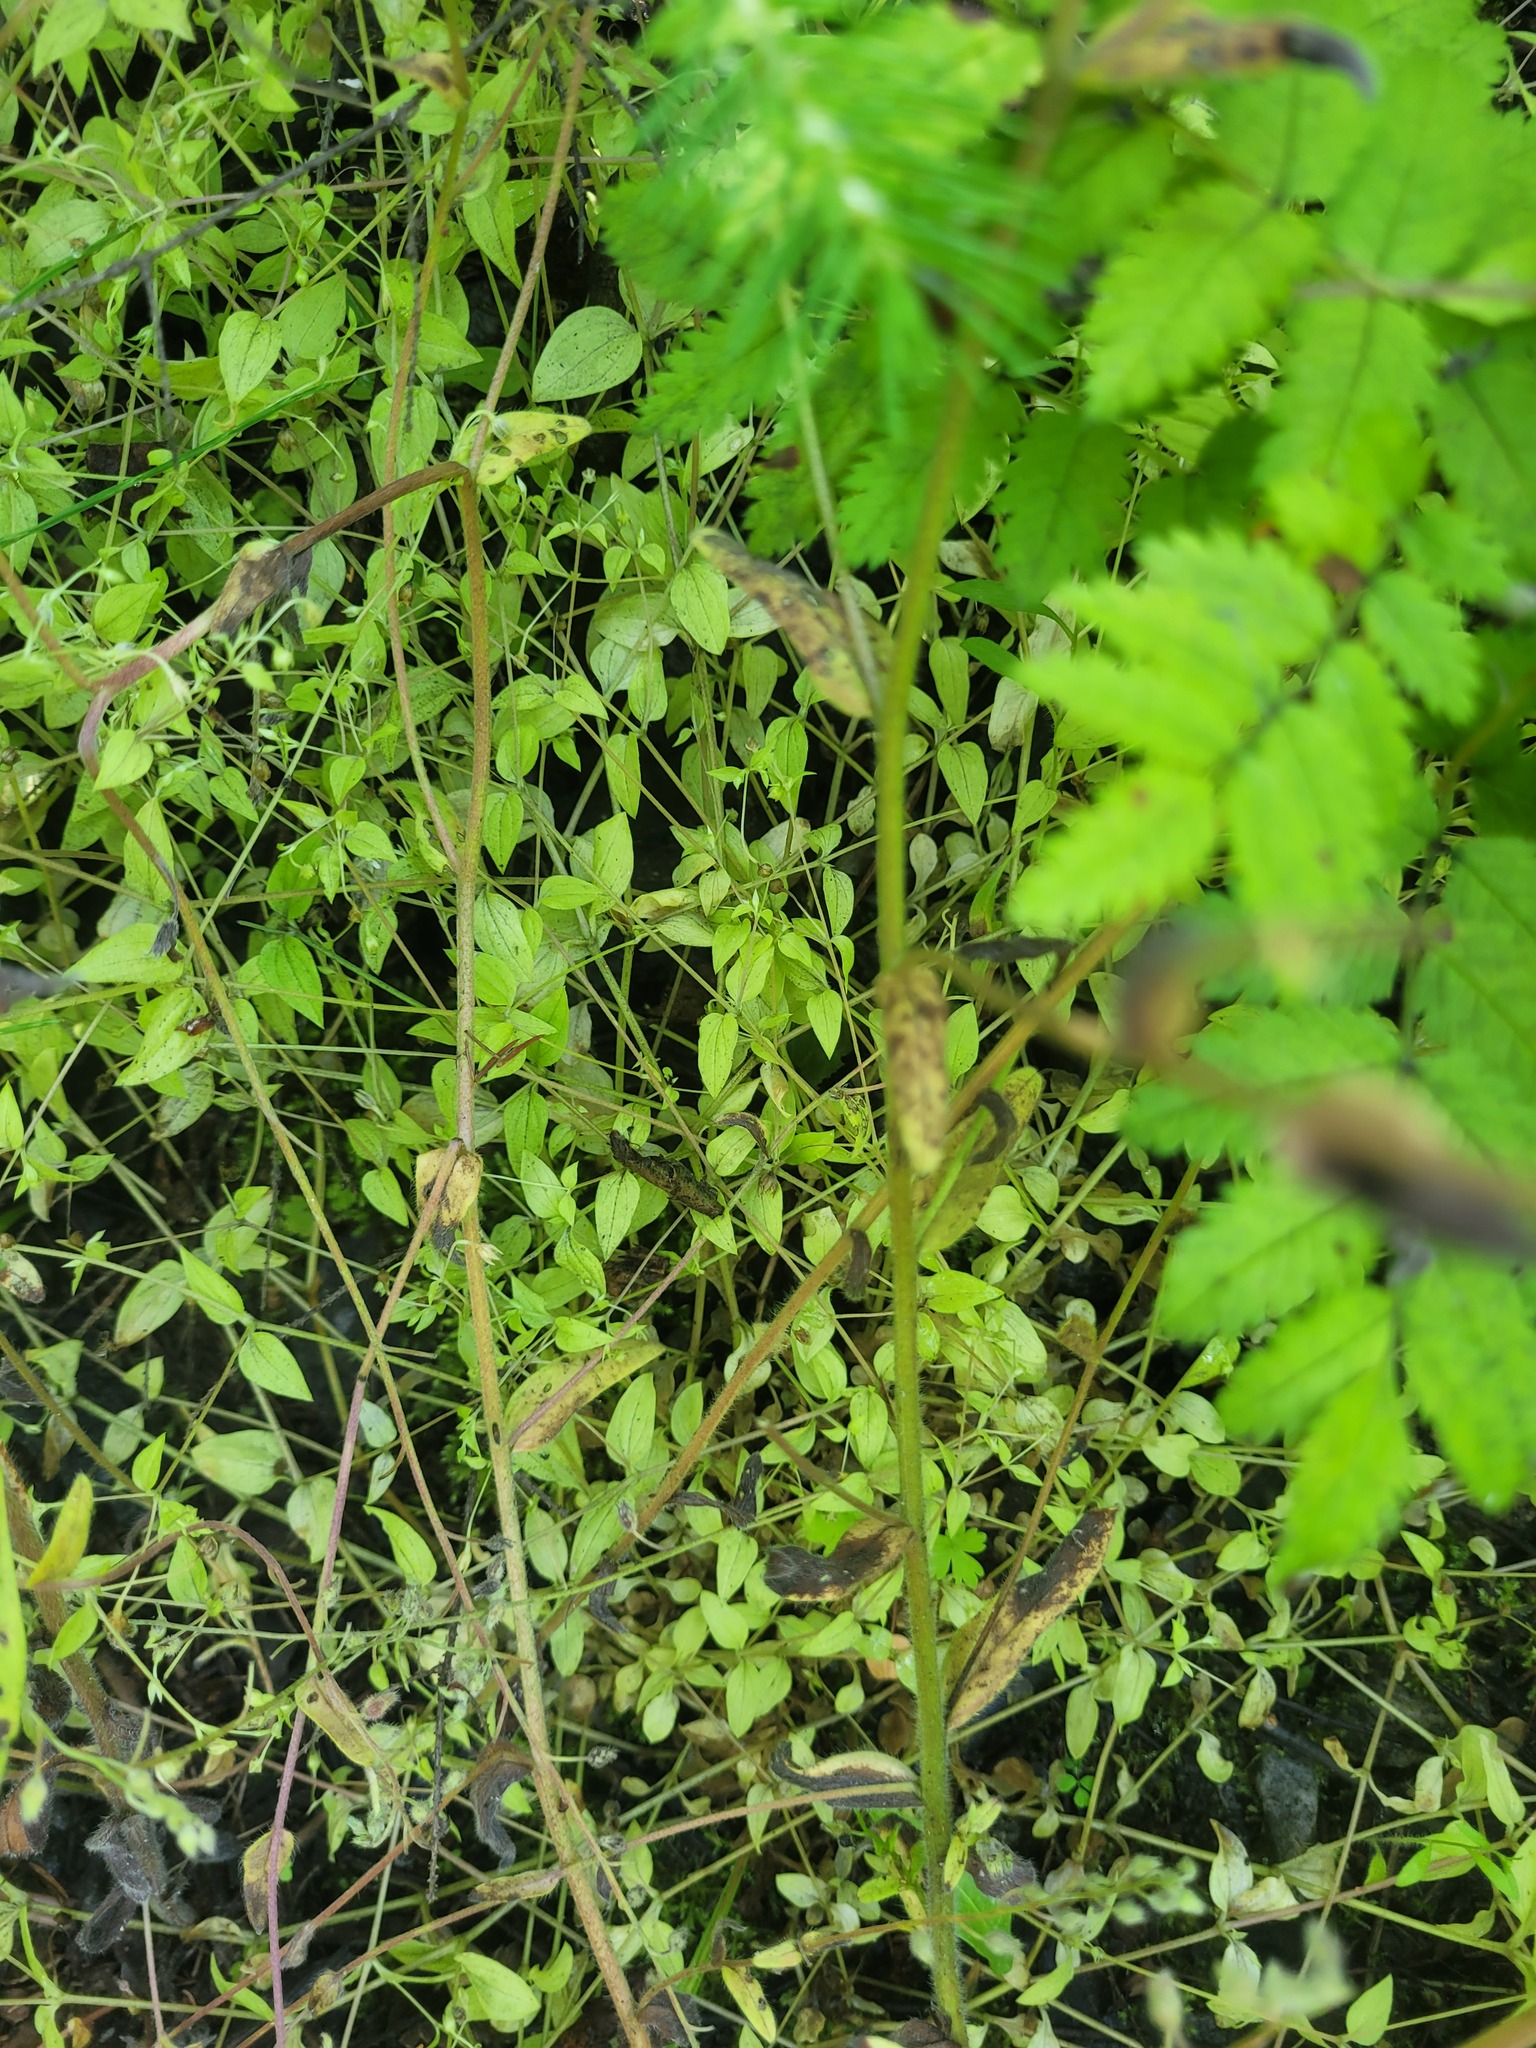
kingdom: Plantae
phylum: Tracheophyta
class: Magnoliopsida
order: Caryophyllales
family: Caryophyllaceae
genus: Moehringia
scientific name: Moehringia trinervia
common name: Three-nerved sandwort
